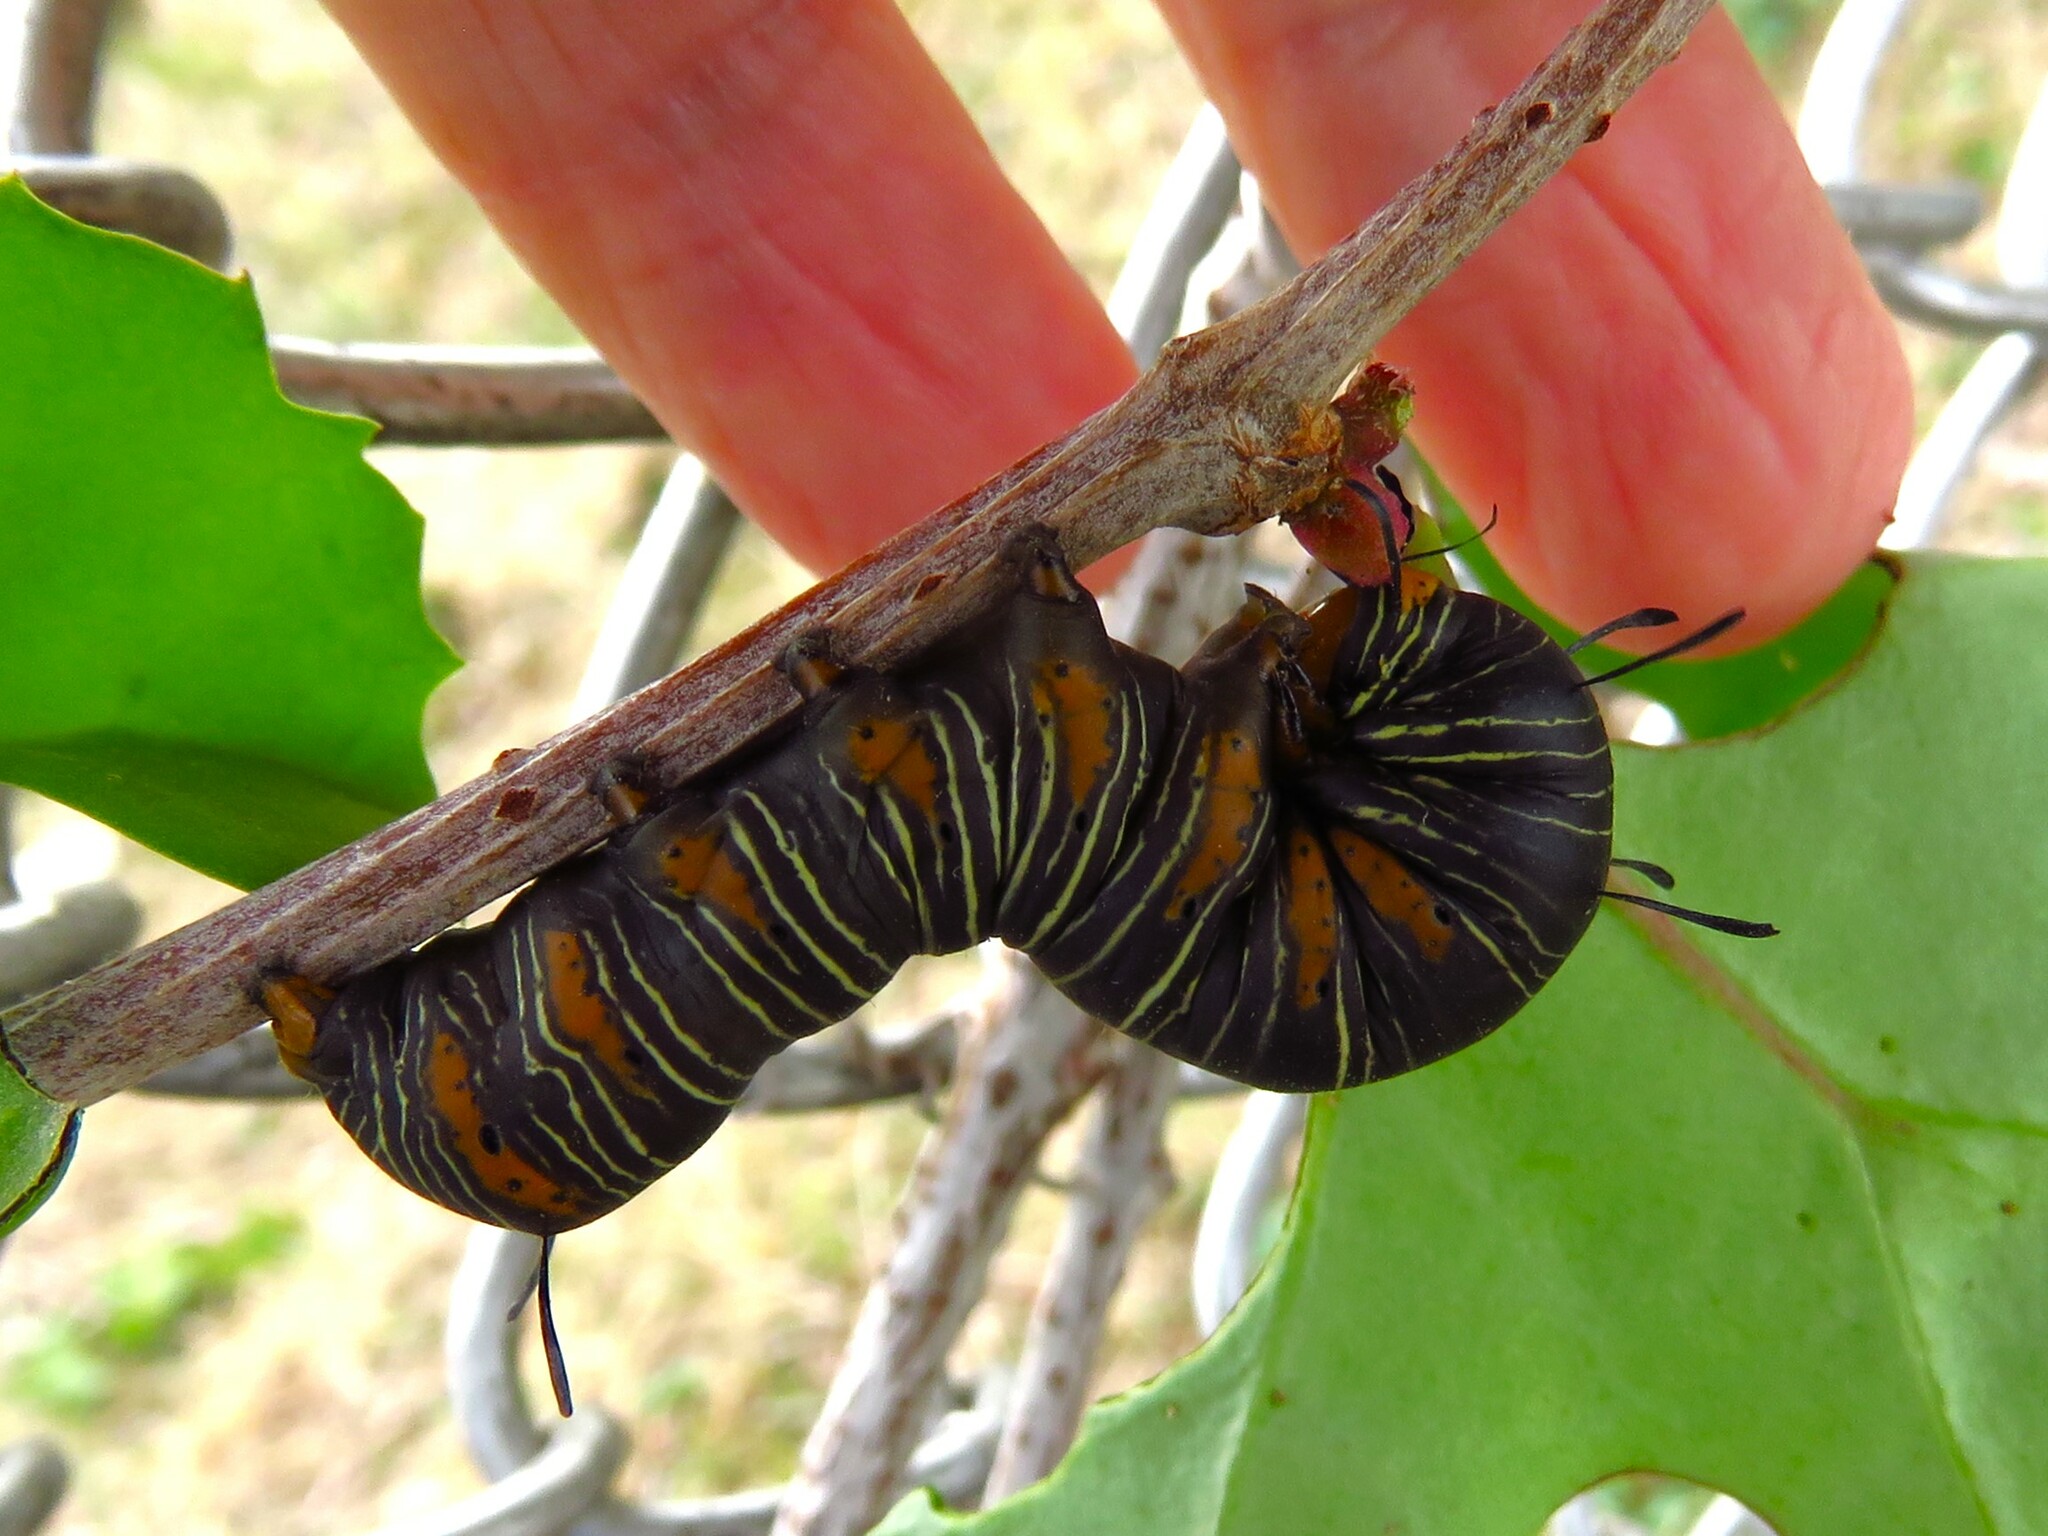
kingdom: Animalia
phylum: Arthropoda
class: Insecta
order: Lepidoptera
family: Noctuidae
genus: Xerociris
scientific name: Xerociris wilsonii
